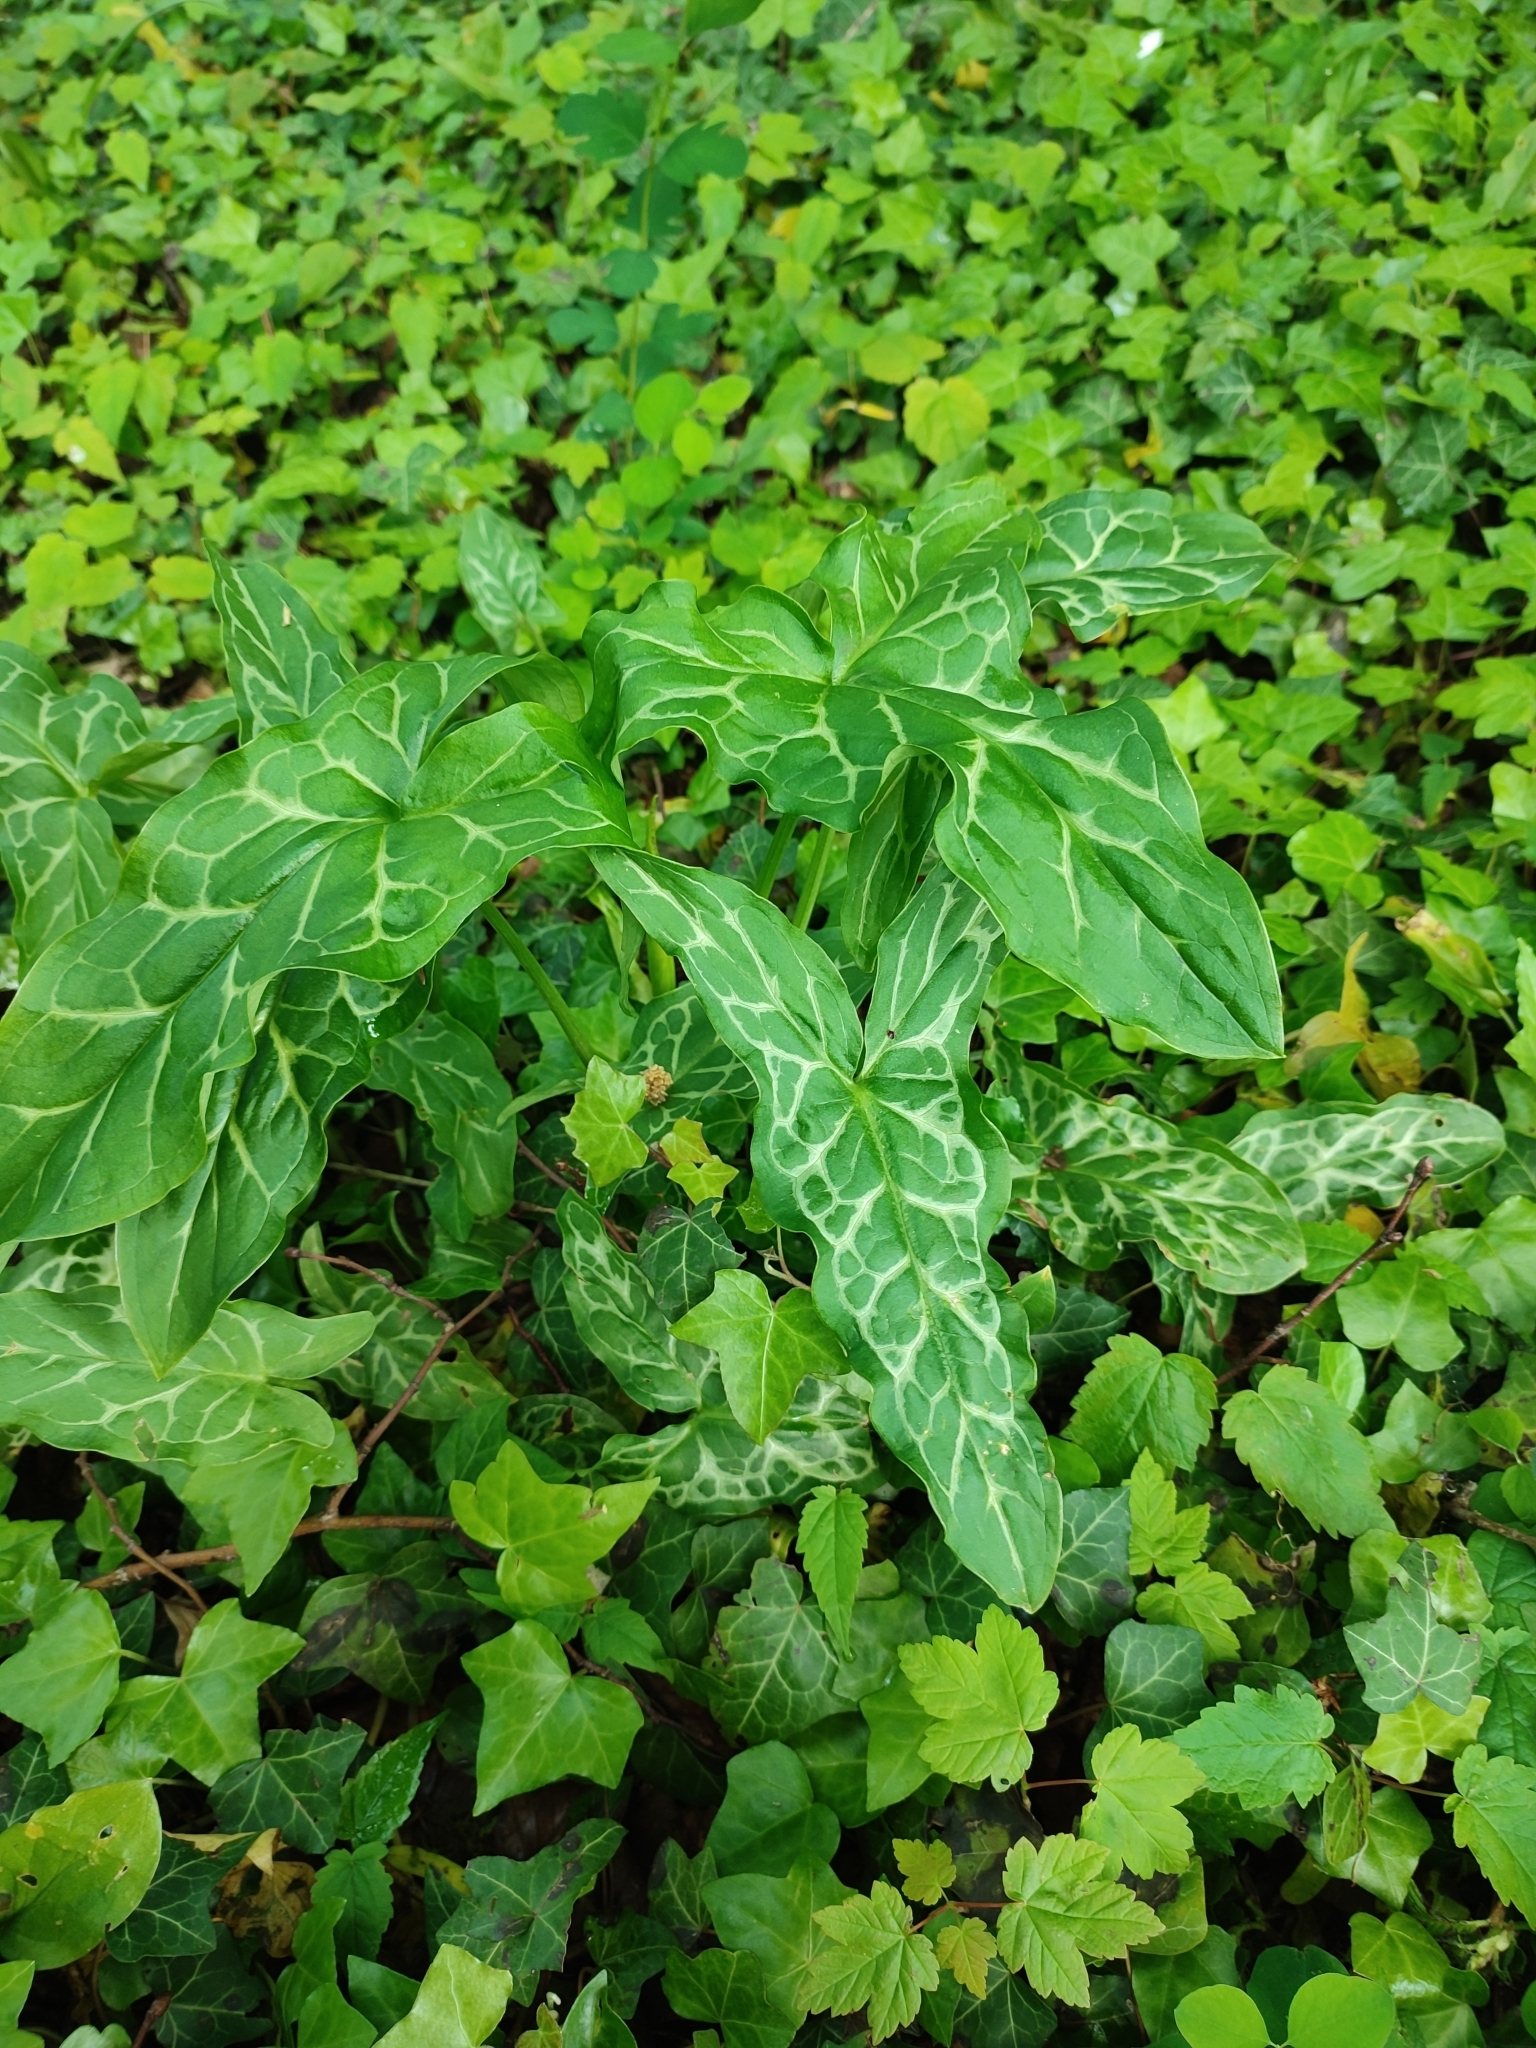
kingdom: Plantae
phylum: Tracheophyta
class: Liliopsida
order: Alismatales
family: Araceae
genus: Arum
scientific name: Arum italicum
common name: Italian lords-and-ladies
